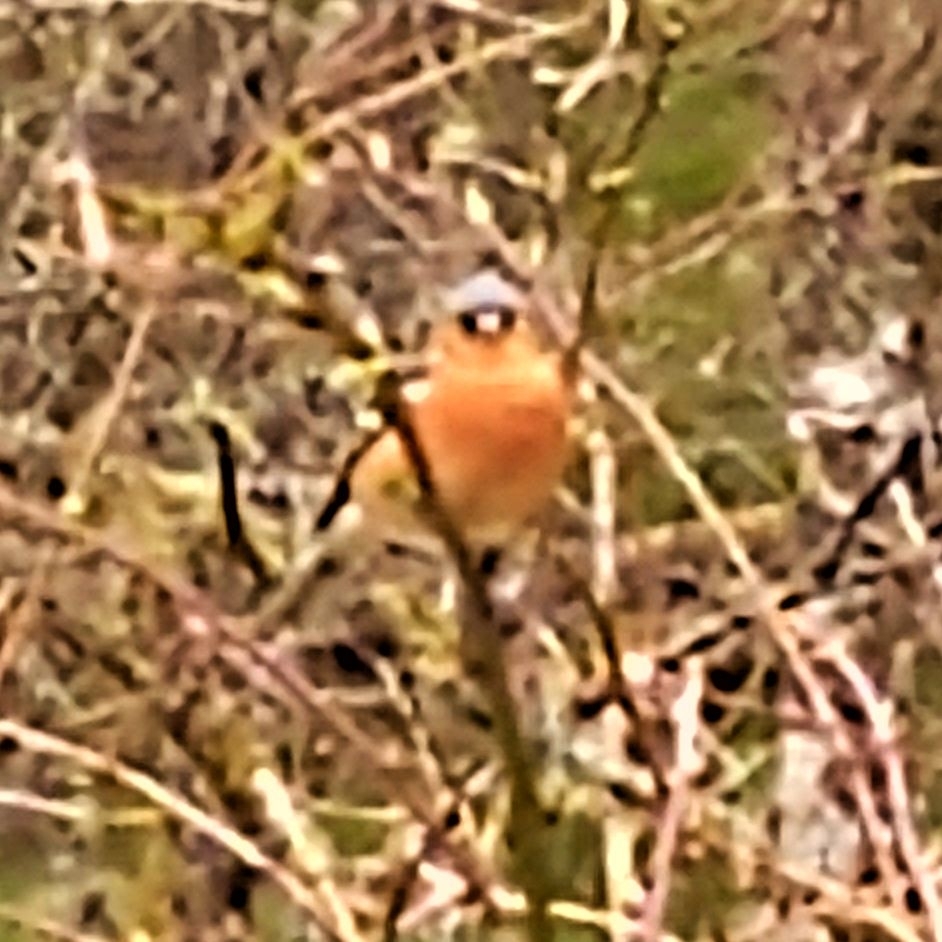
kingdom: Animalia
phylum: Chordata
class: Aves
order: Passeriformes
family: Fringillidae
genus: Fringilla
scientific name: Fringilla coelebs
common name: Common chaffinch
